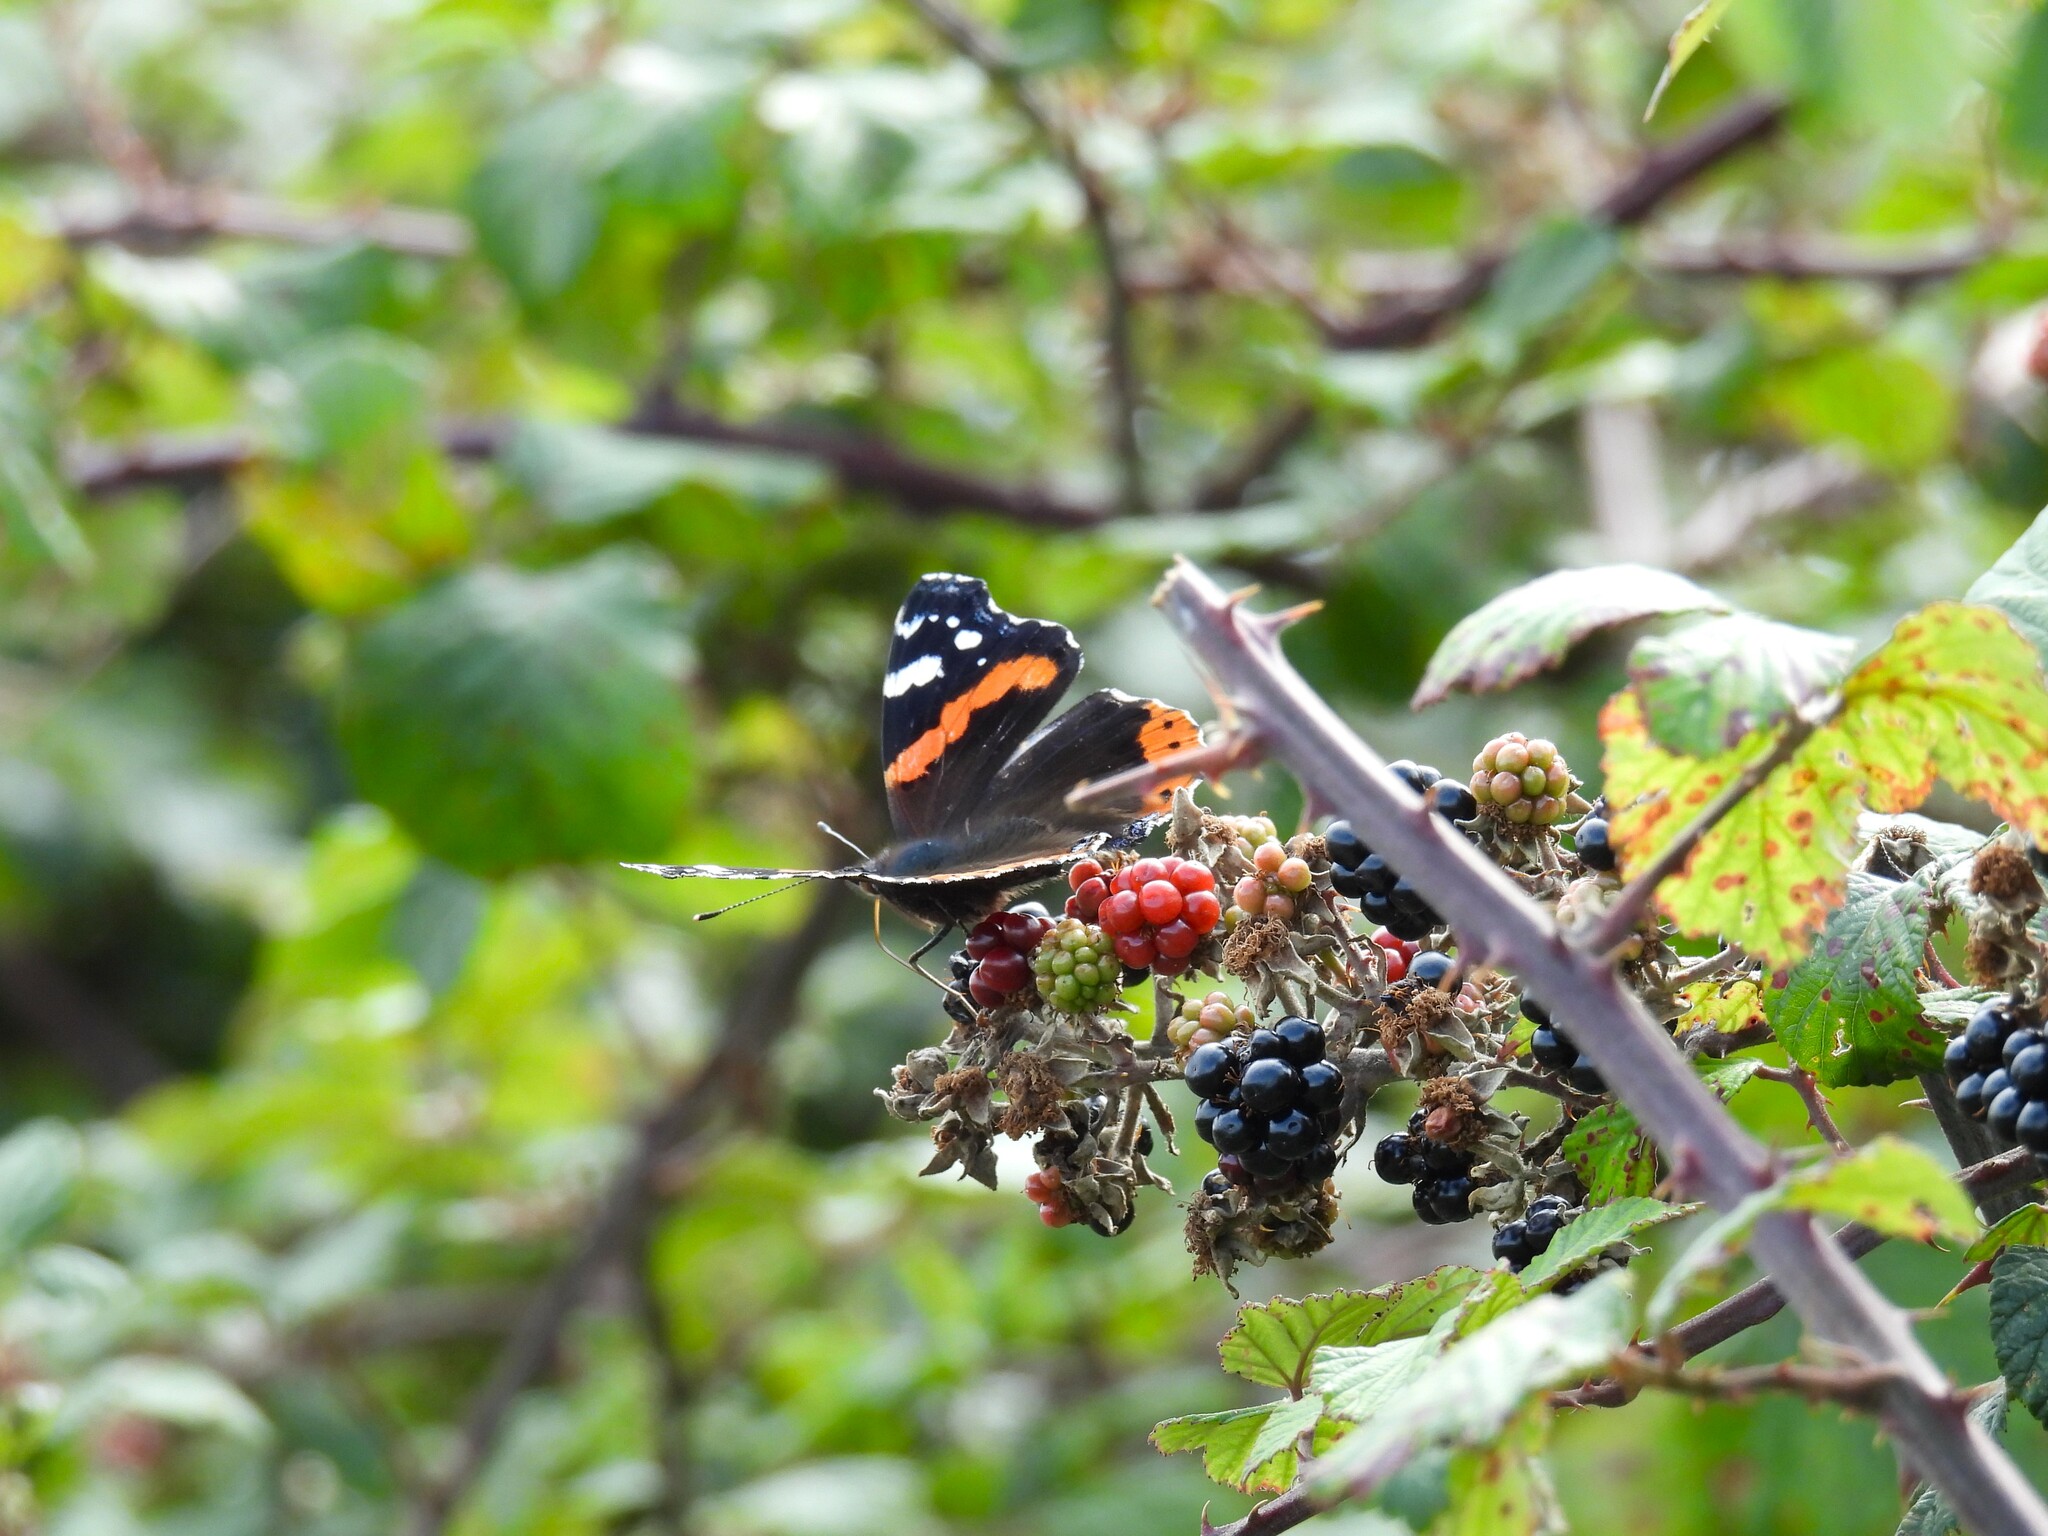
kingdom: Animalia
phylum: Arthropoda
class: Insecta
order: Lepidoptera
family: Nymphalidae
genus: Vanessa
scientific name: Vanessa atalanta
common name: Red admiral
